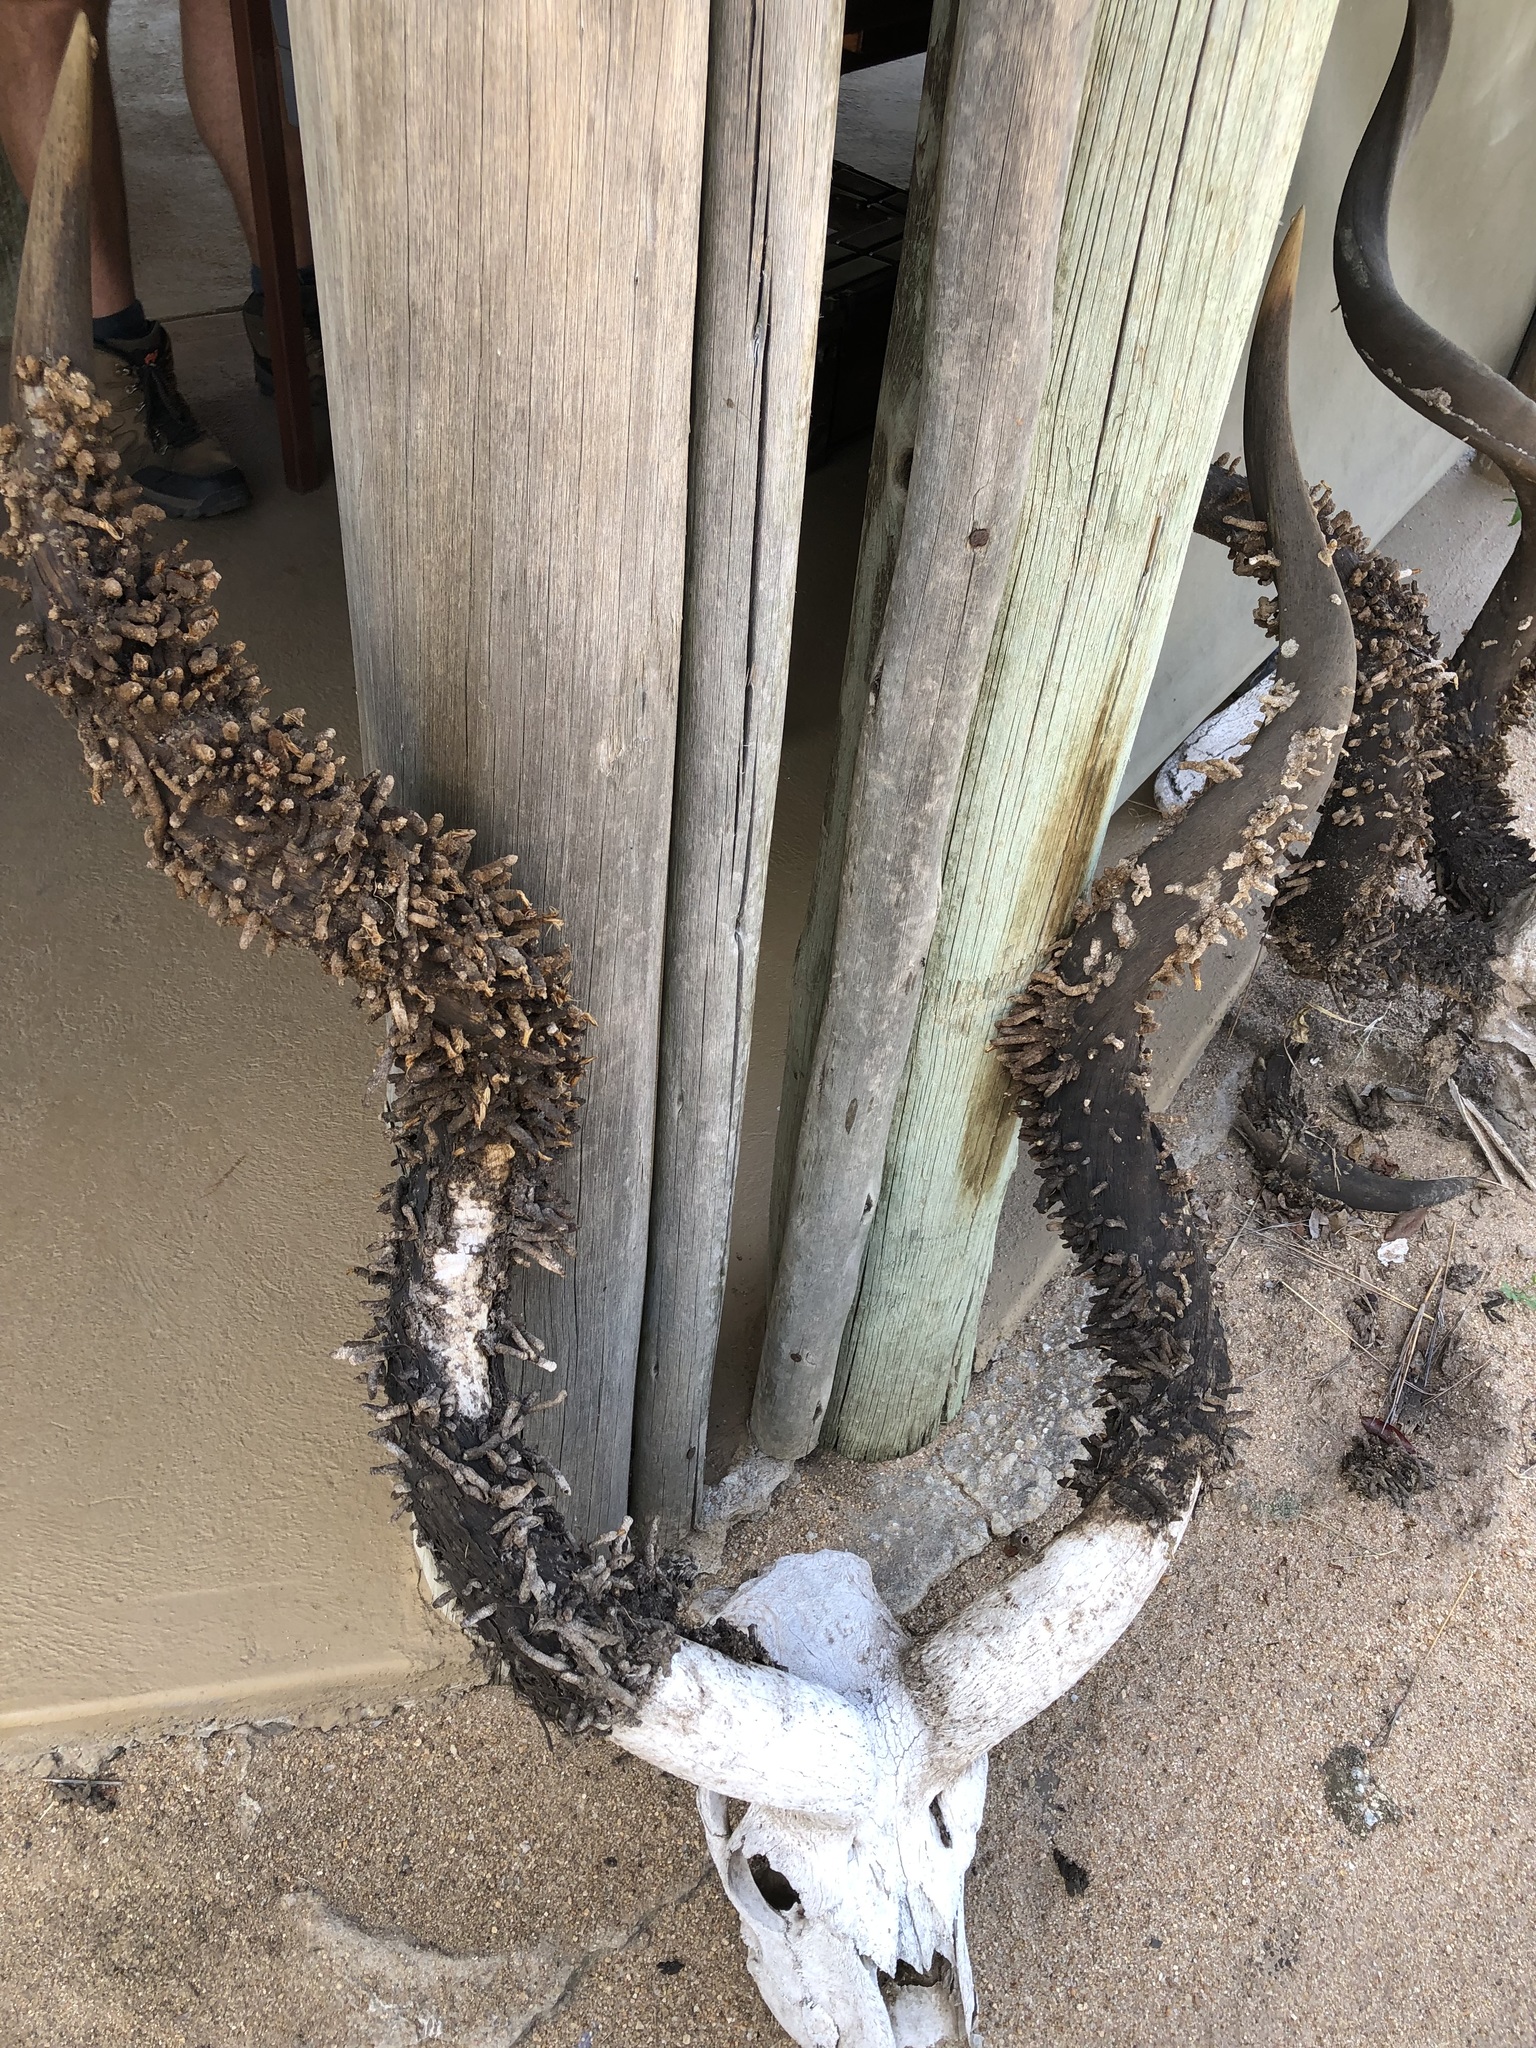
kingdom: Animalia
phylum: Arthropoda
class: Insecta
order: Lepidoptera
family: Tineidae
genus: Ceratophaga
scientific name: Ceratophaga vastellus
